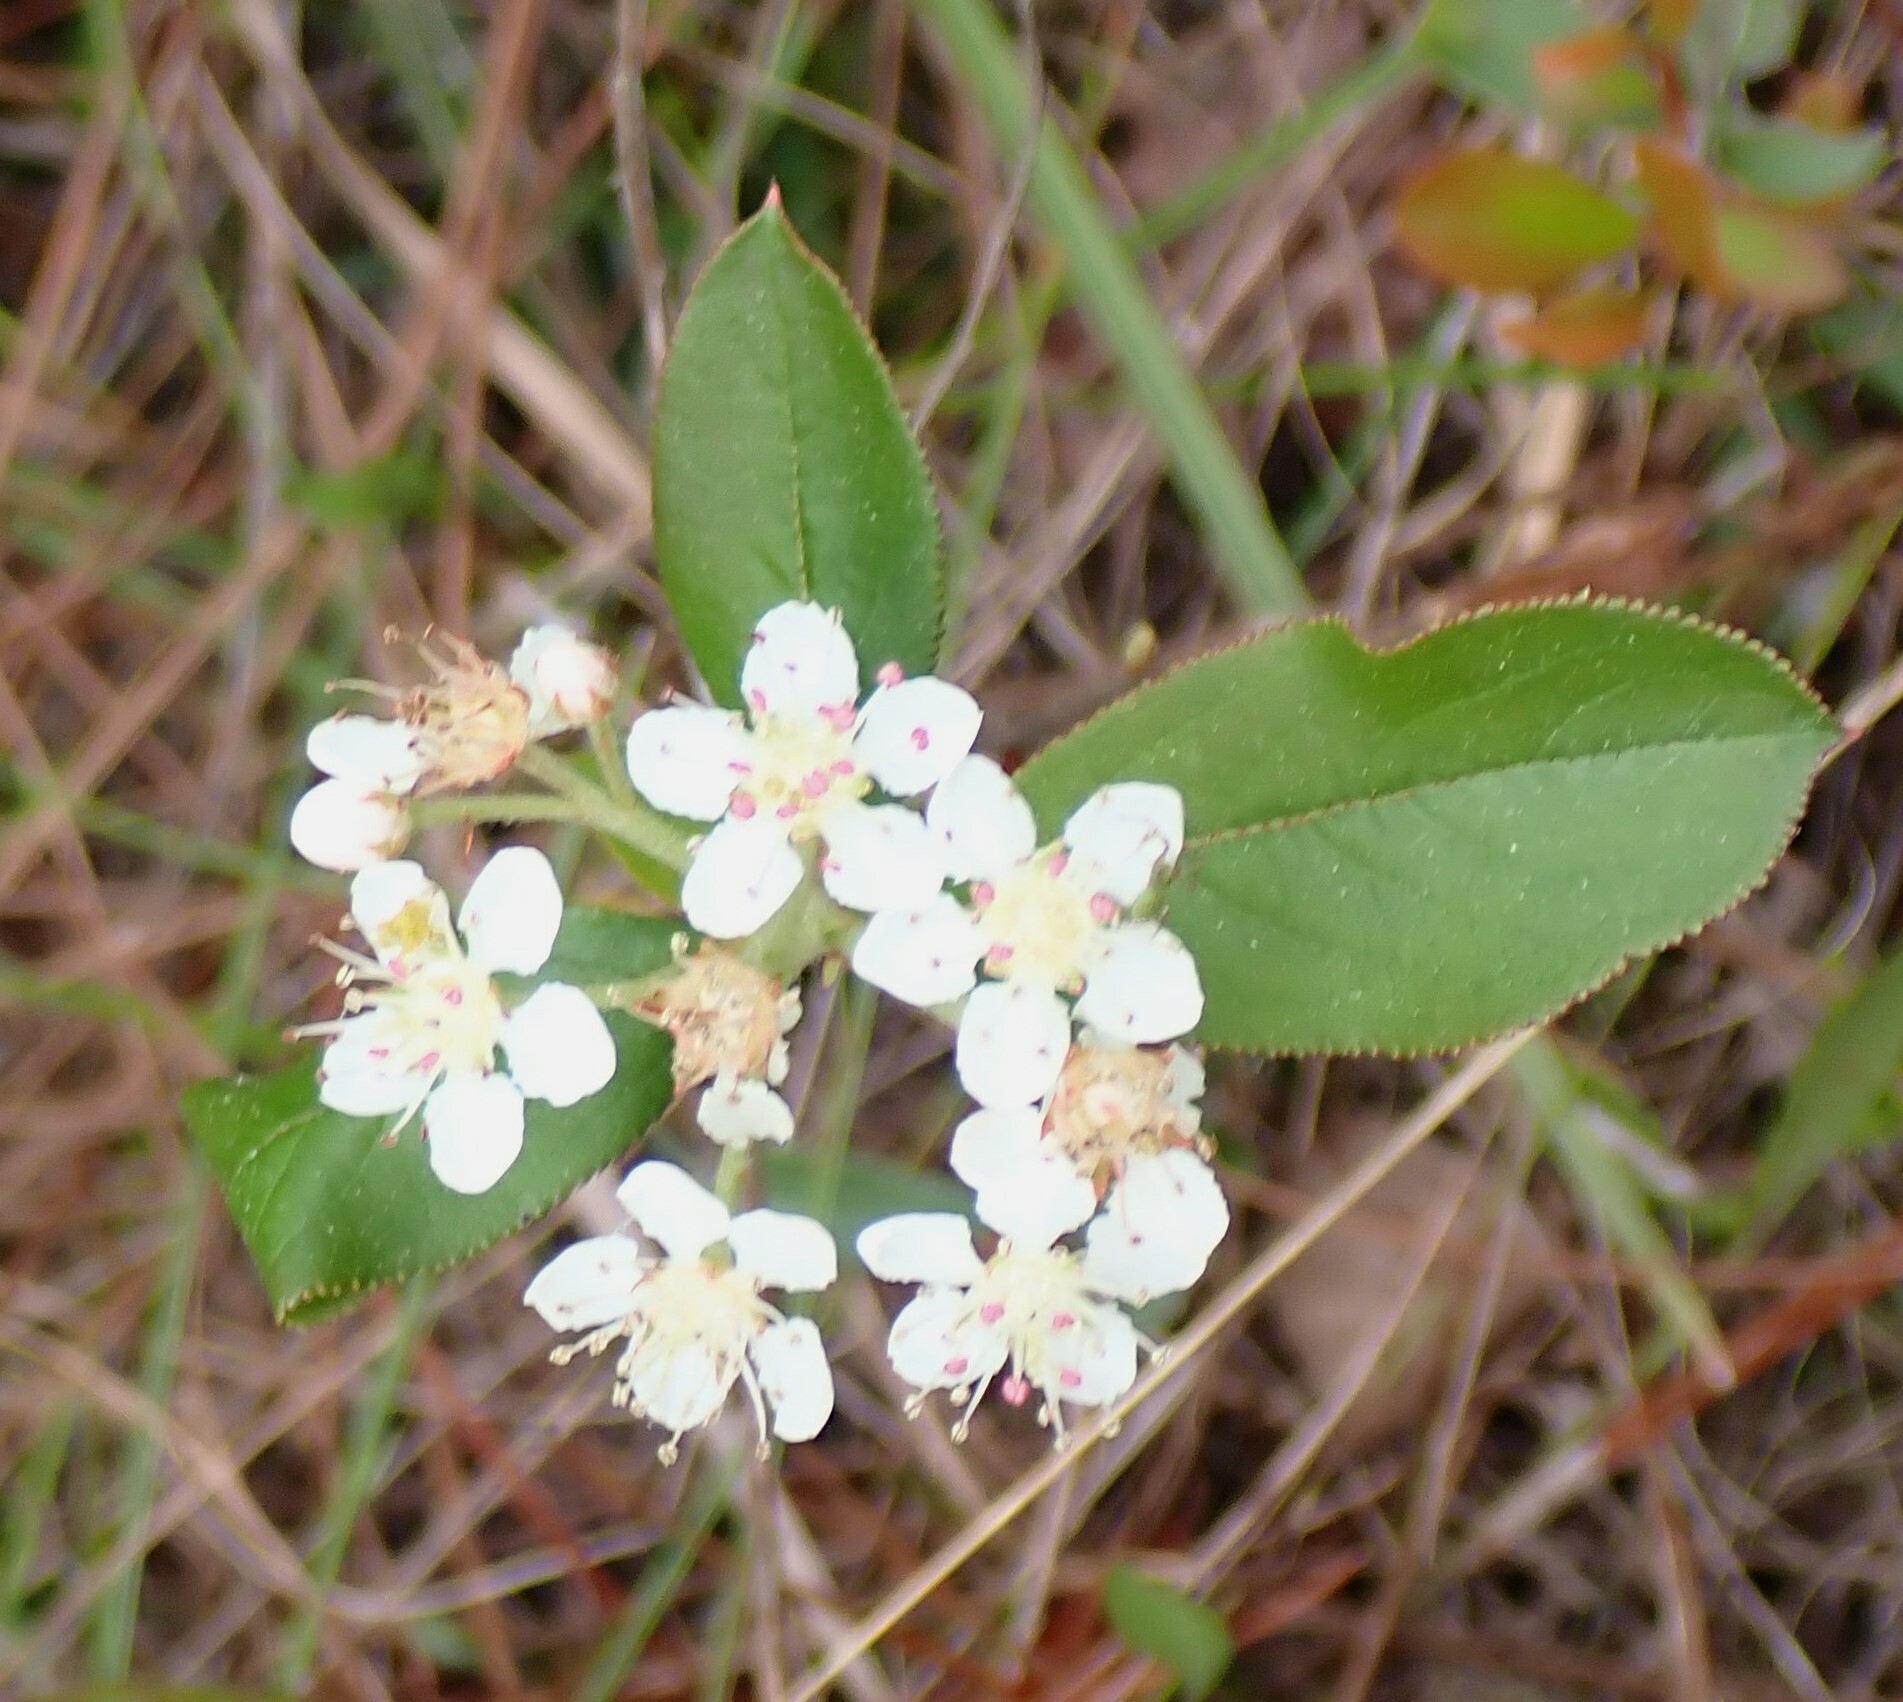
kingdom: Plantae
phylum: Tracheophyta
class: Magnoliopsida
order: Rosales
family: Rosaceae
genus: Aronia
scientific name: Aronia arbutifolia
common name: Red chokeberry
